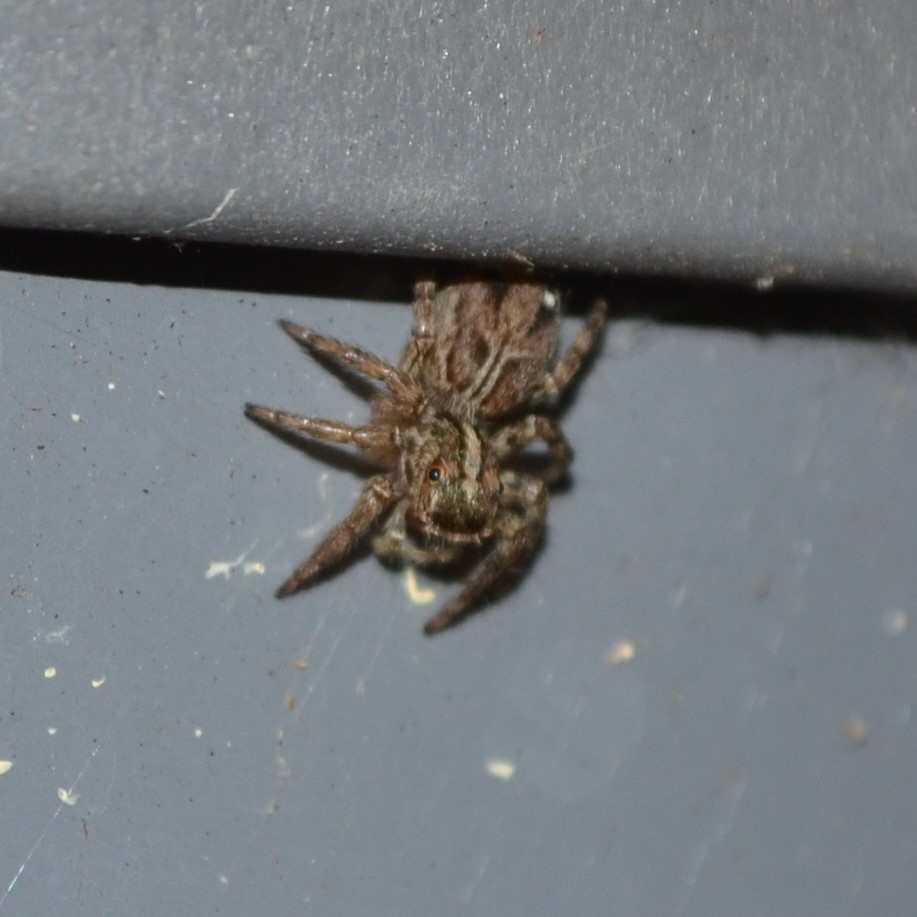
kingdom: Animalia
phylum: Arthropoda
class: Arachnida
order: Araneae
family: Salticidae
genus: Plexippus
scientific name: Plexippus paykulli
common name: Pantropical jumper
